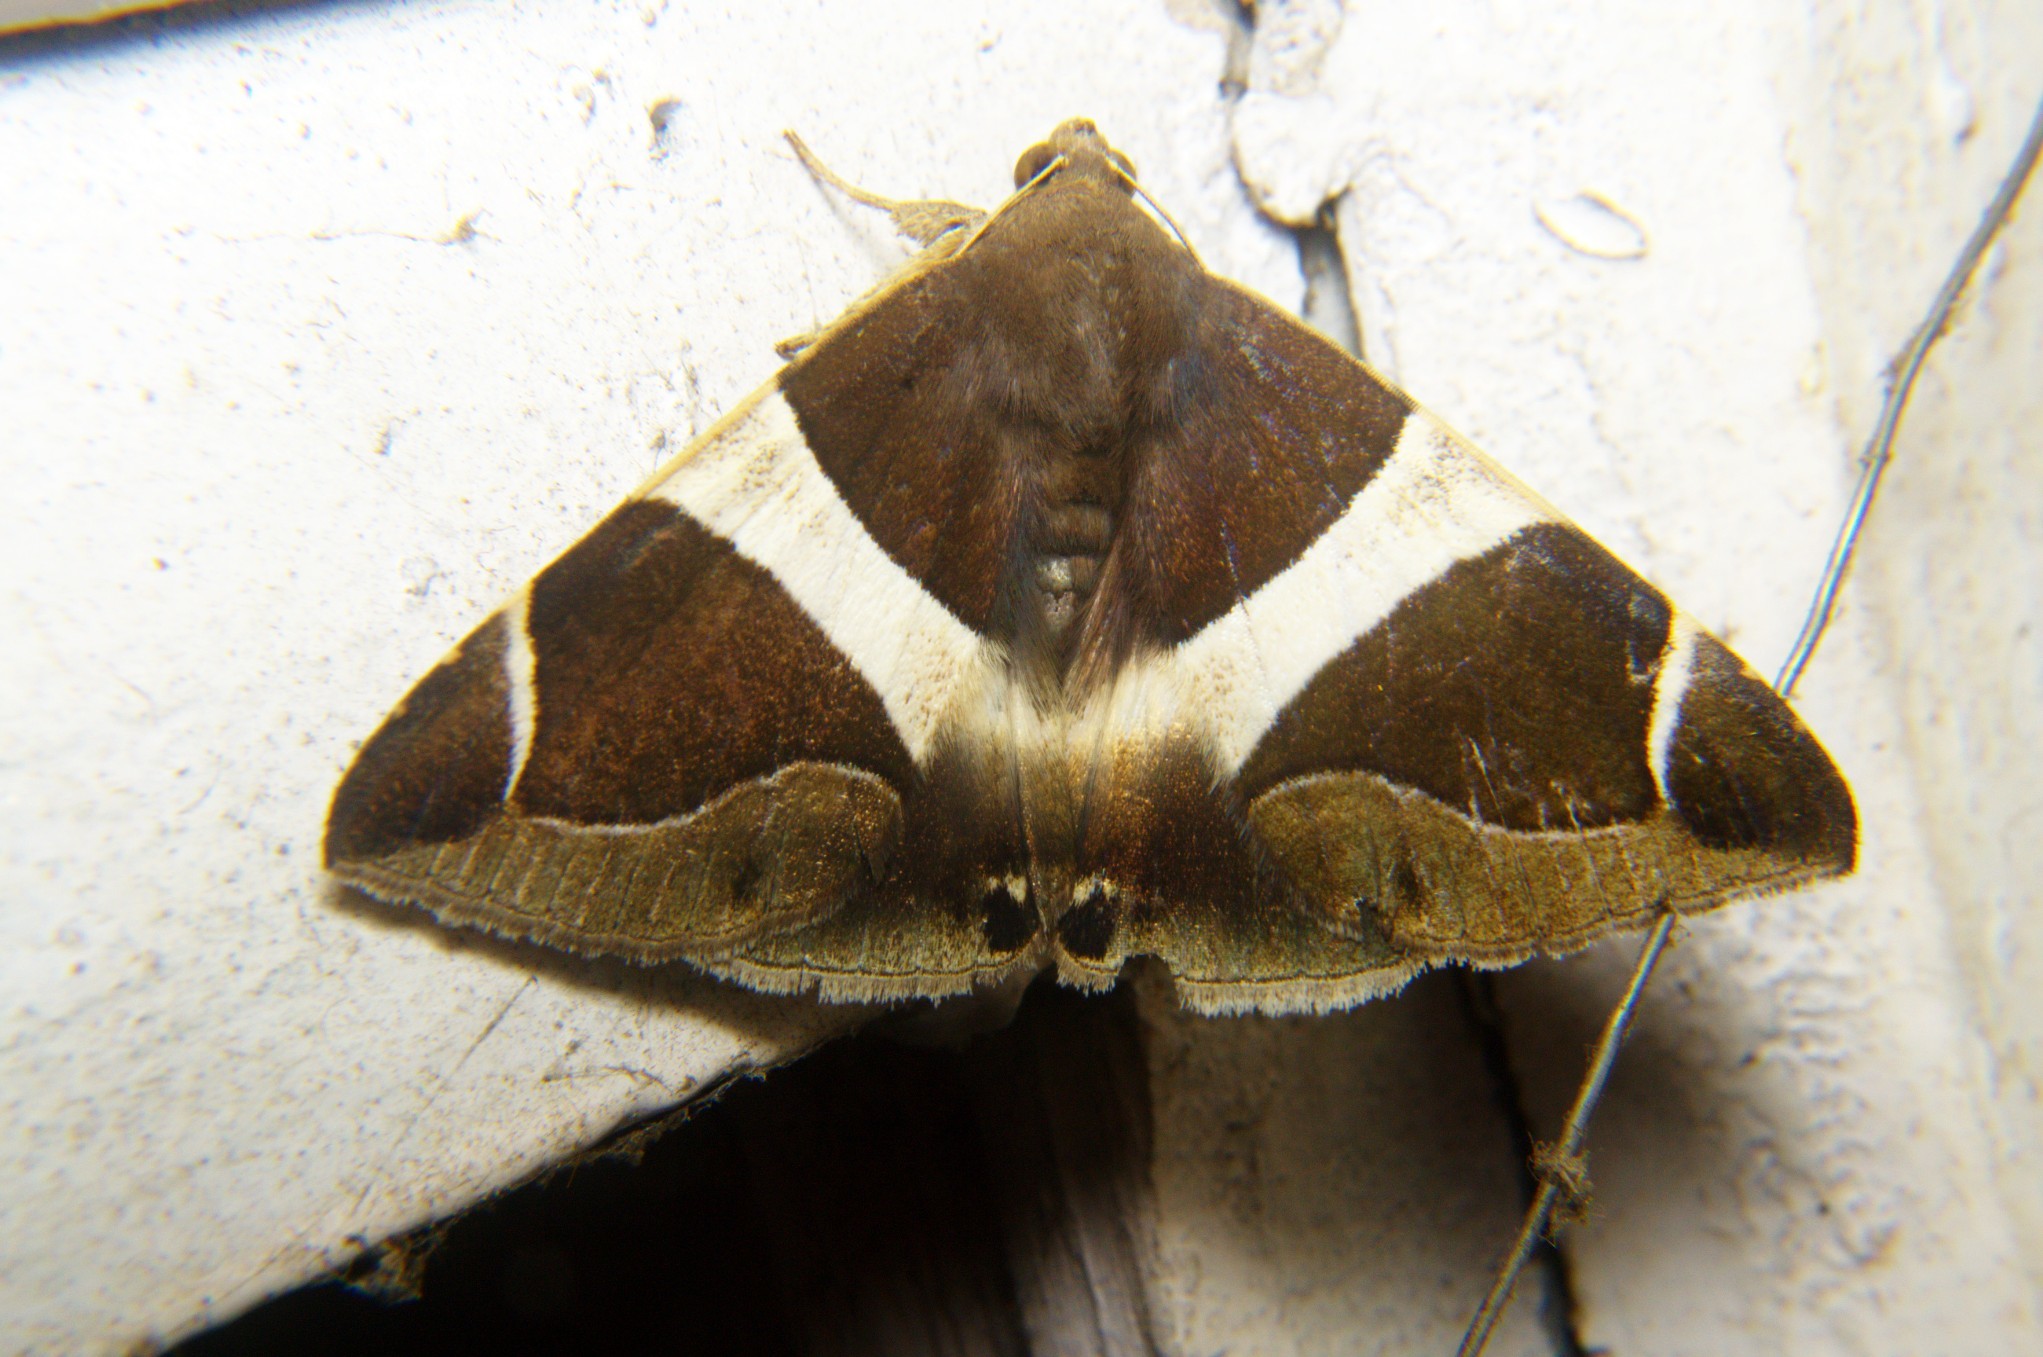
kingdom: Animalia
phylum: Arthropoda
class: Insecta
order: Lepidoptera
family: Erebidae
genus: Bastilla
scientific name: Bastilla crameri
